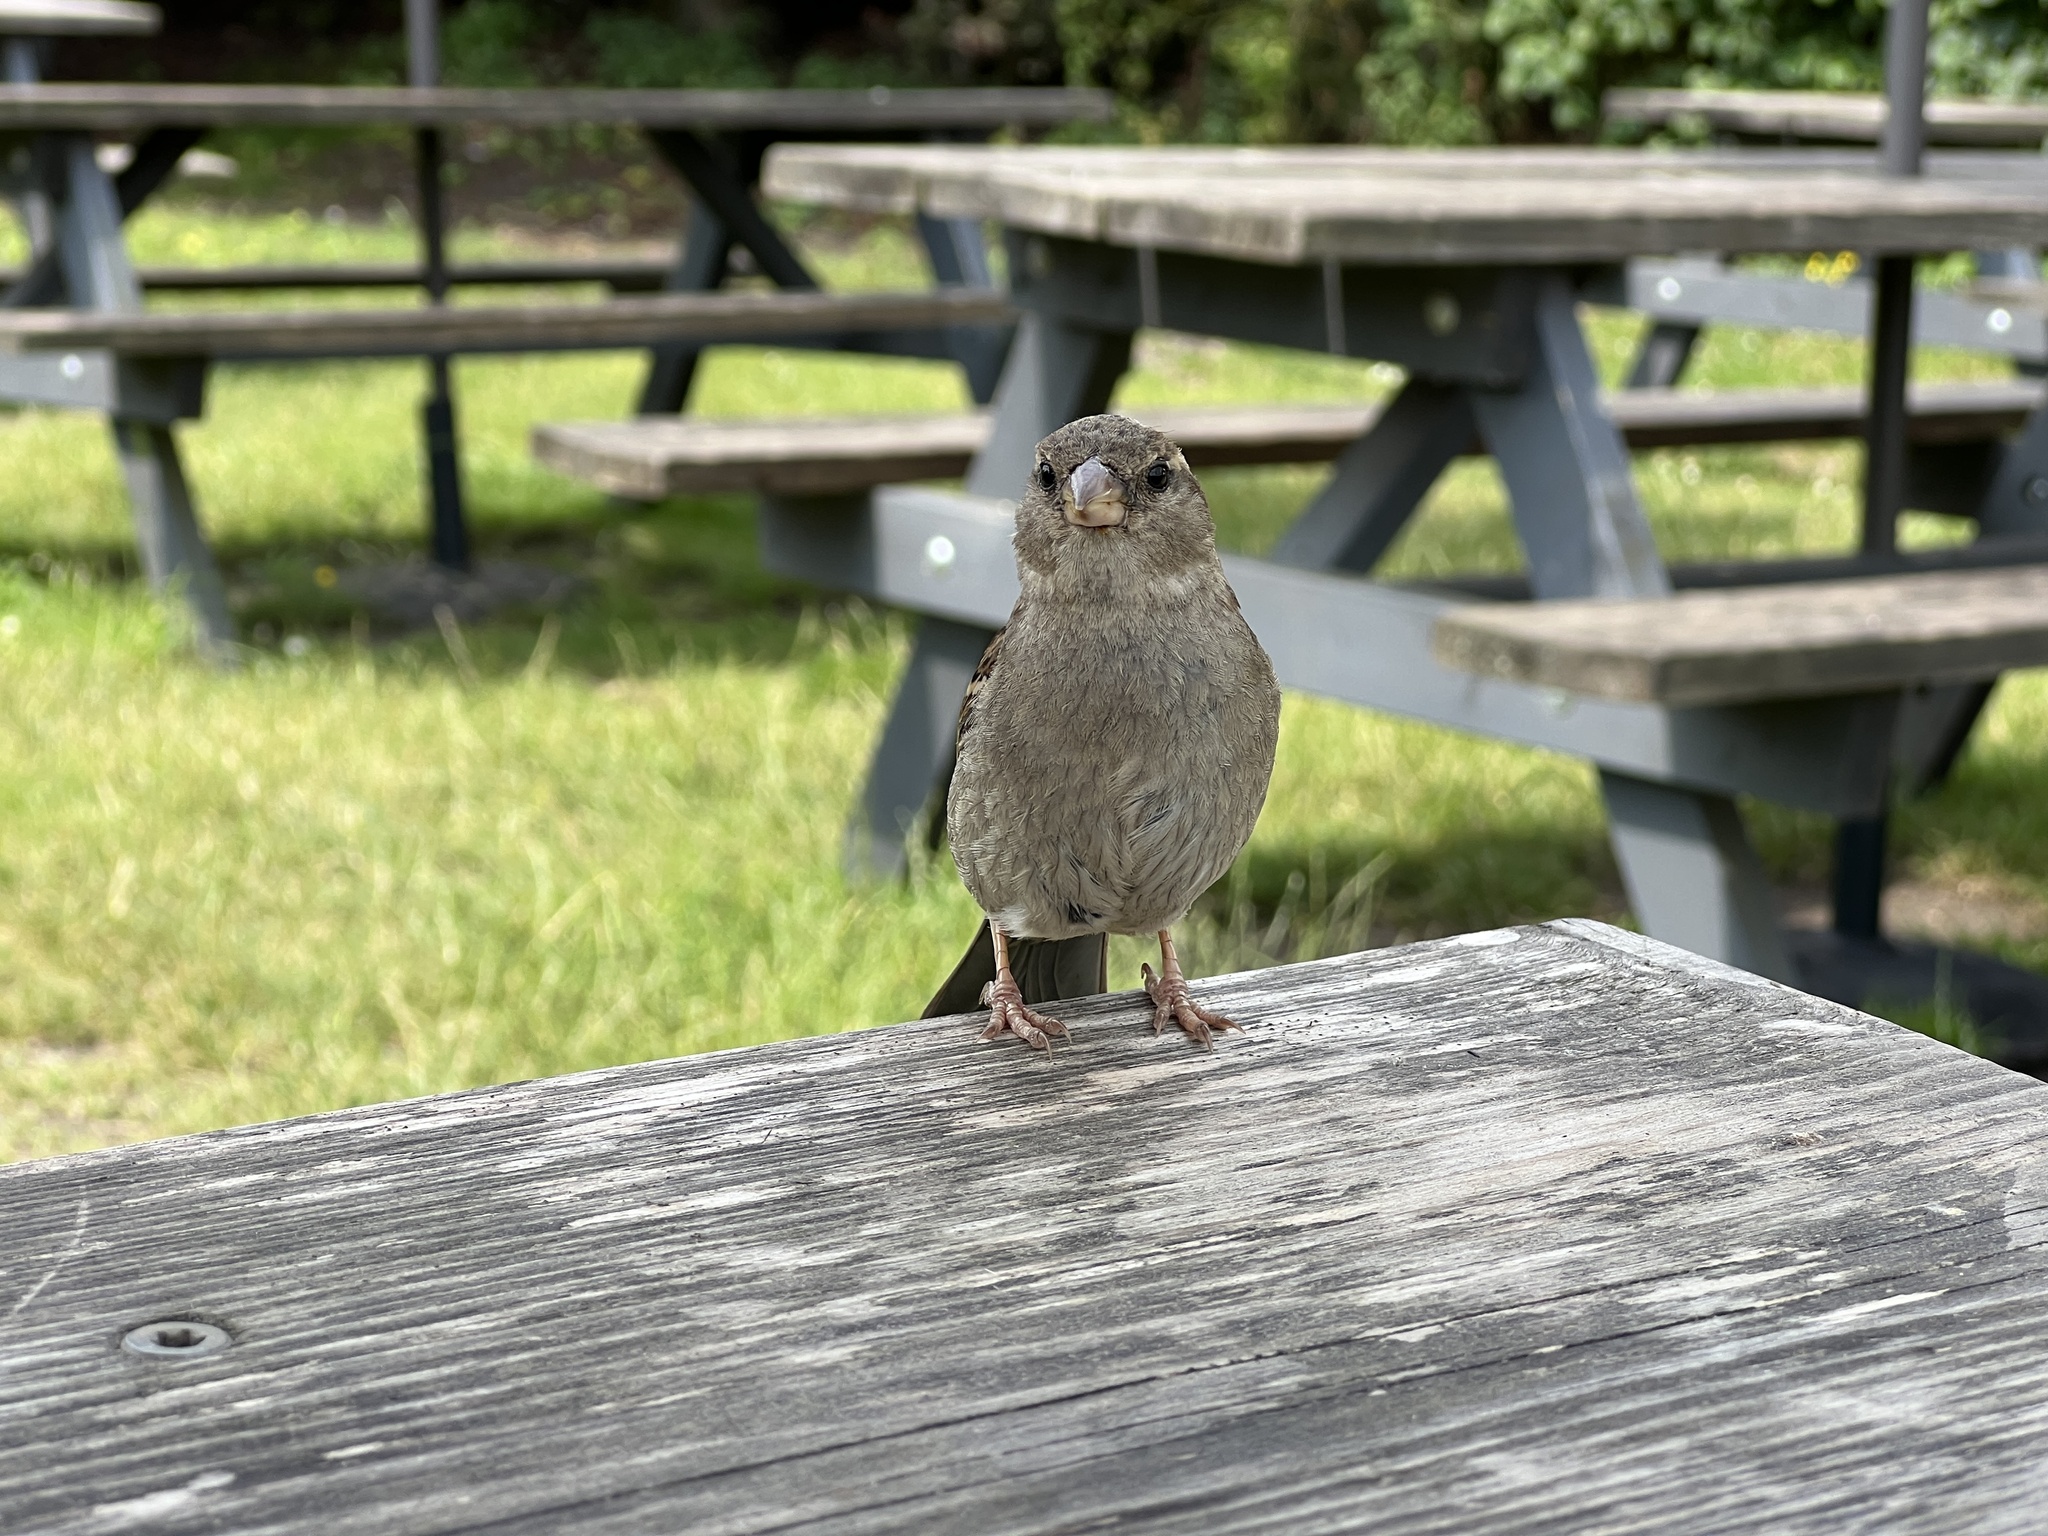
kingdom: Animalia
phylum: Chordata
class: Aves
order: Passeriformes
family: Passeridae
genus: Passer
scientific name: Passer domesticus
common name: House sparrow
